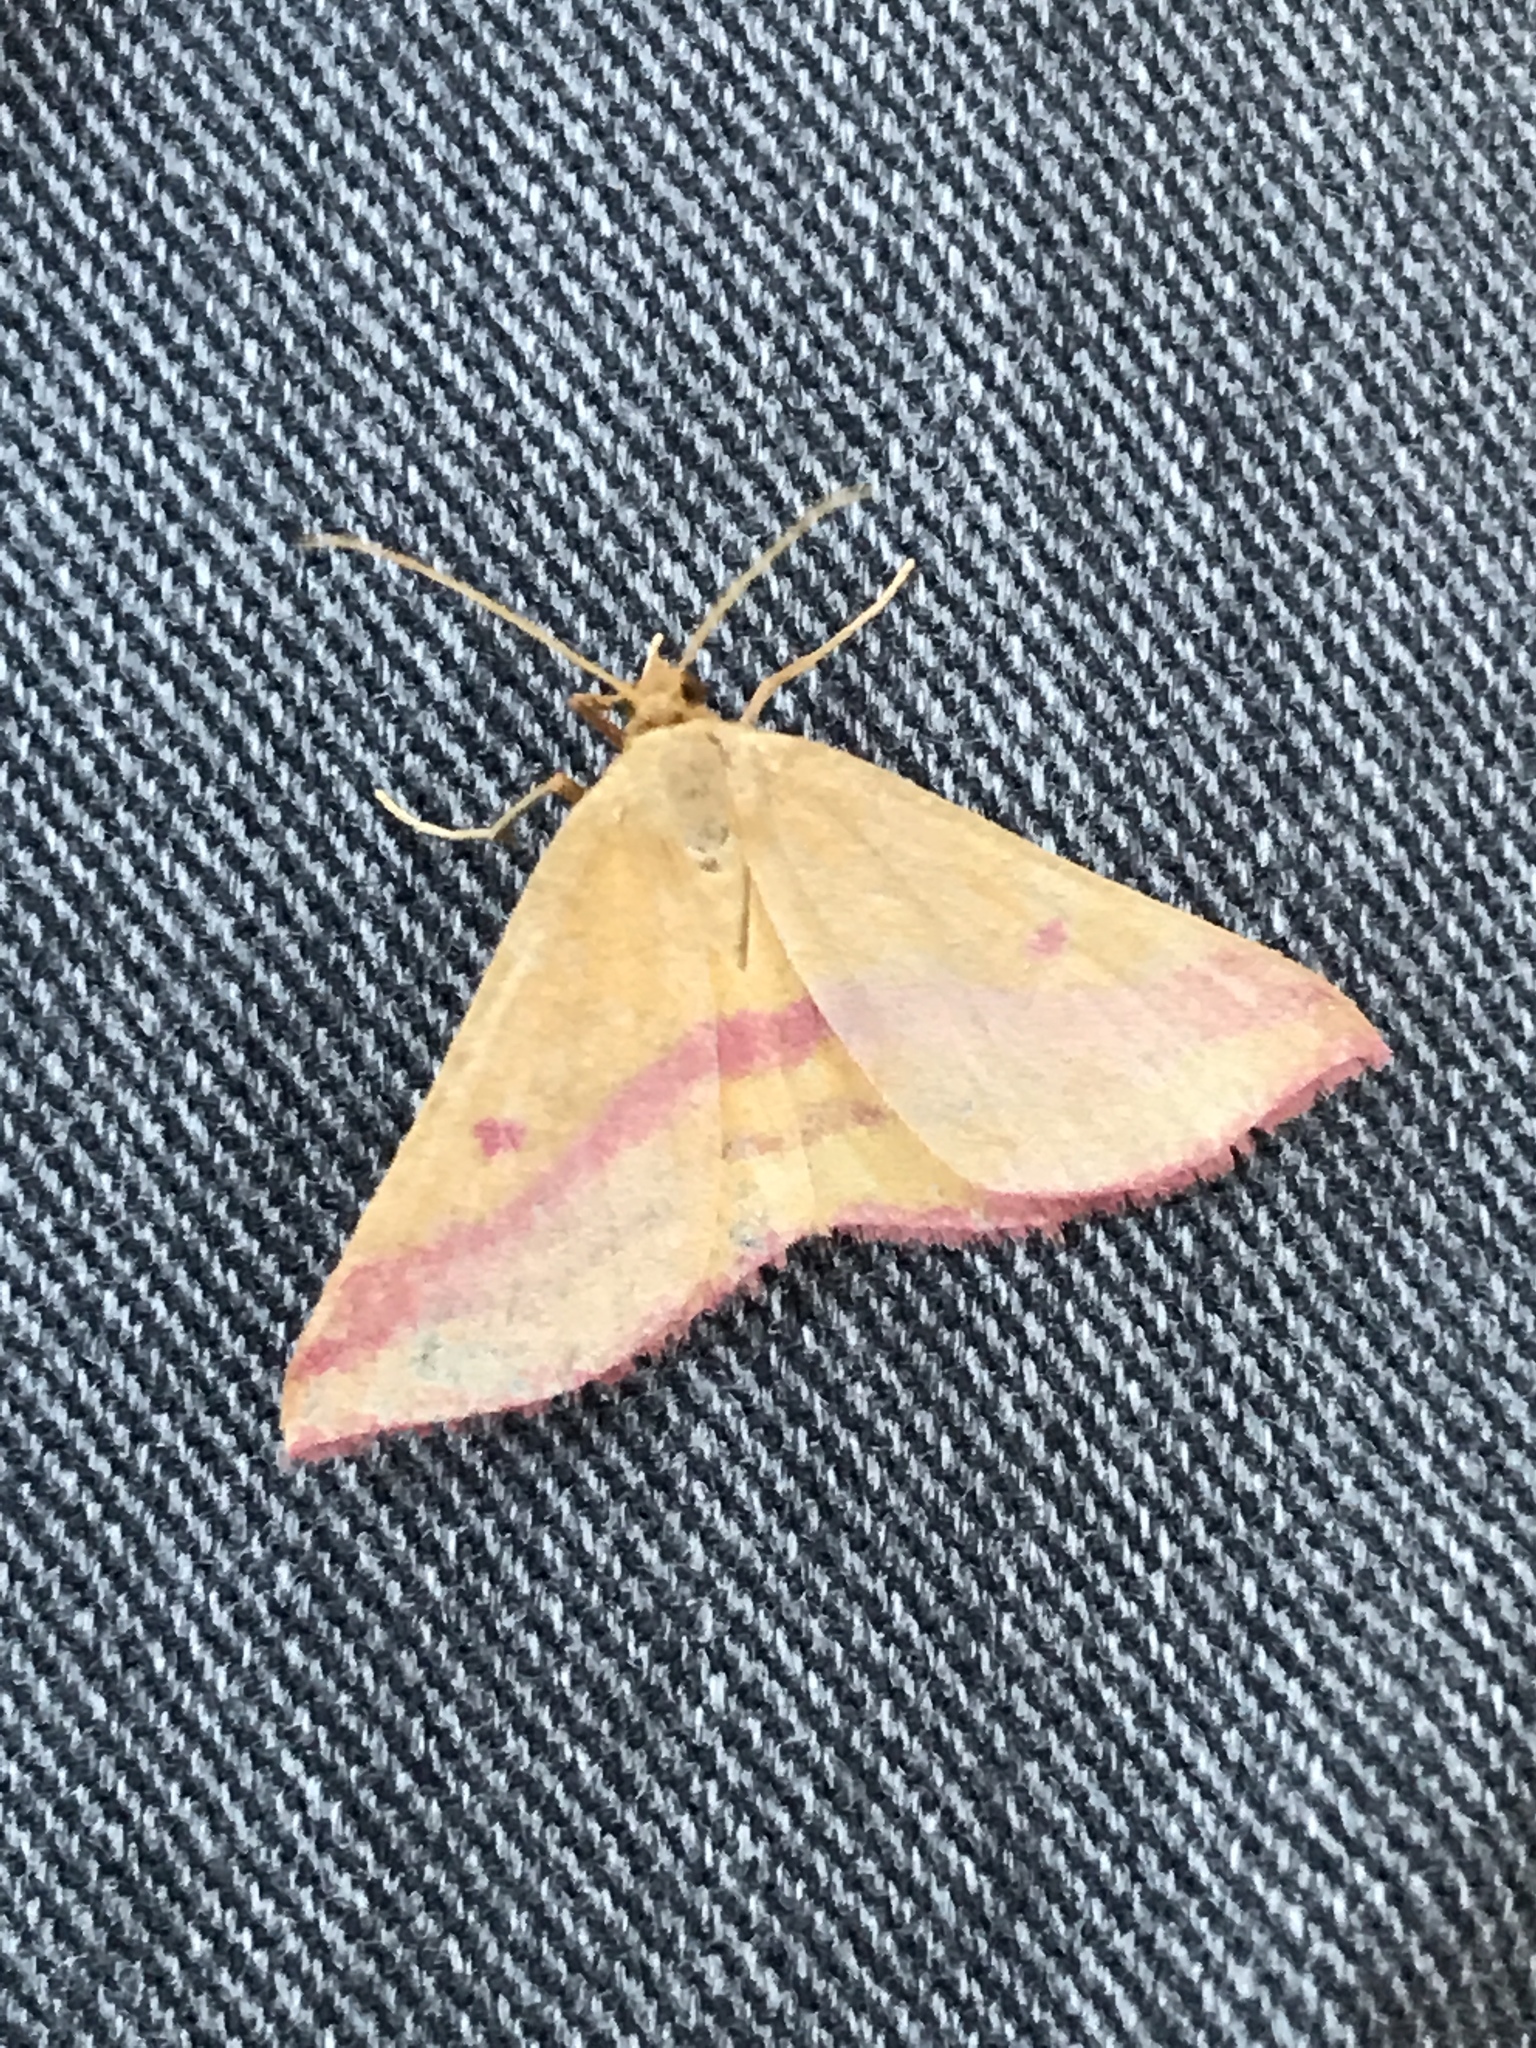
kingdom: Animalia
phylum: Arthropoda
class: Insecta
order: Lepidoptera
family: Geometridae
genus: Haematopis
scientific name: Haematopis grataria
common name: Chickweed geometer
